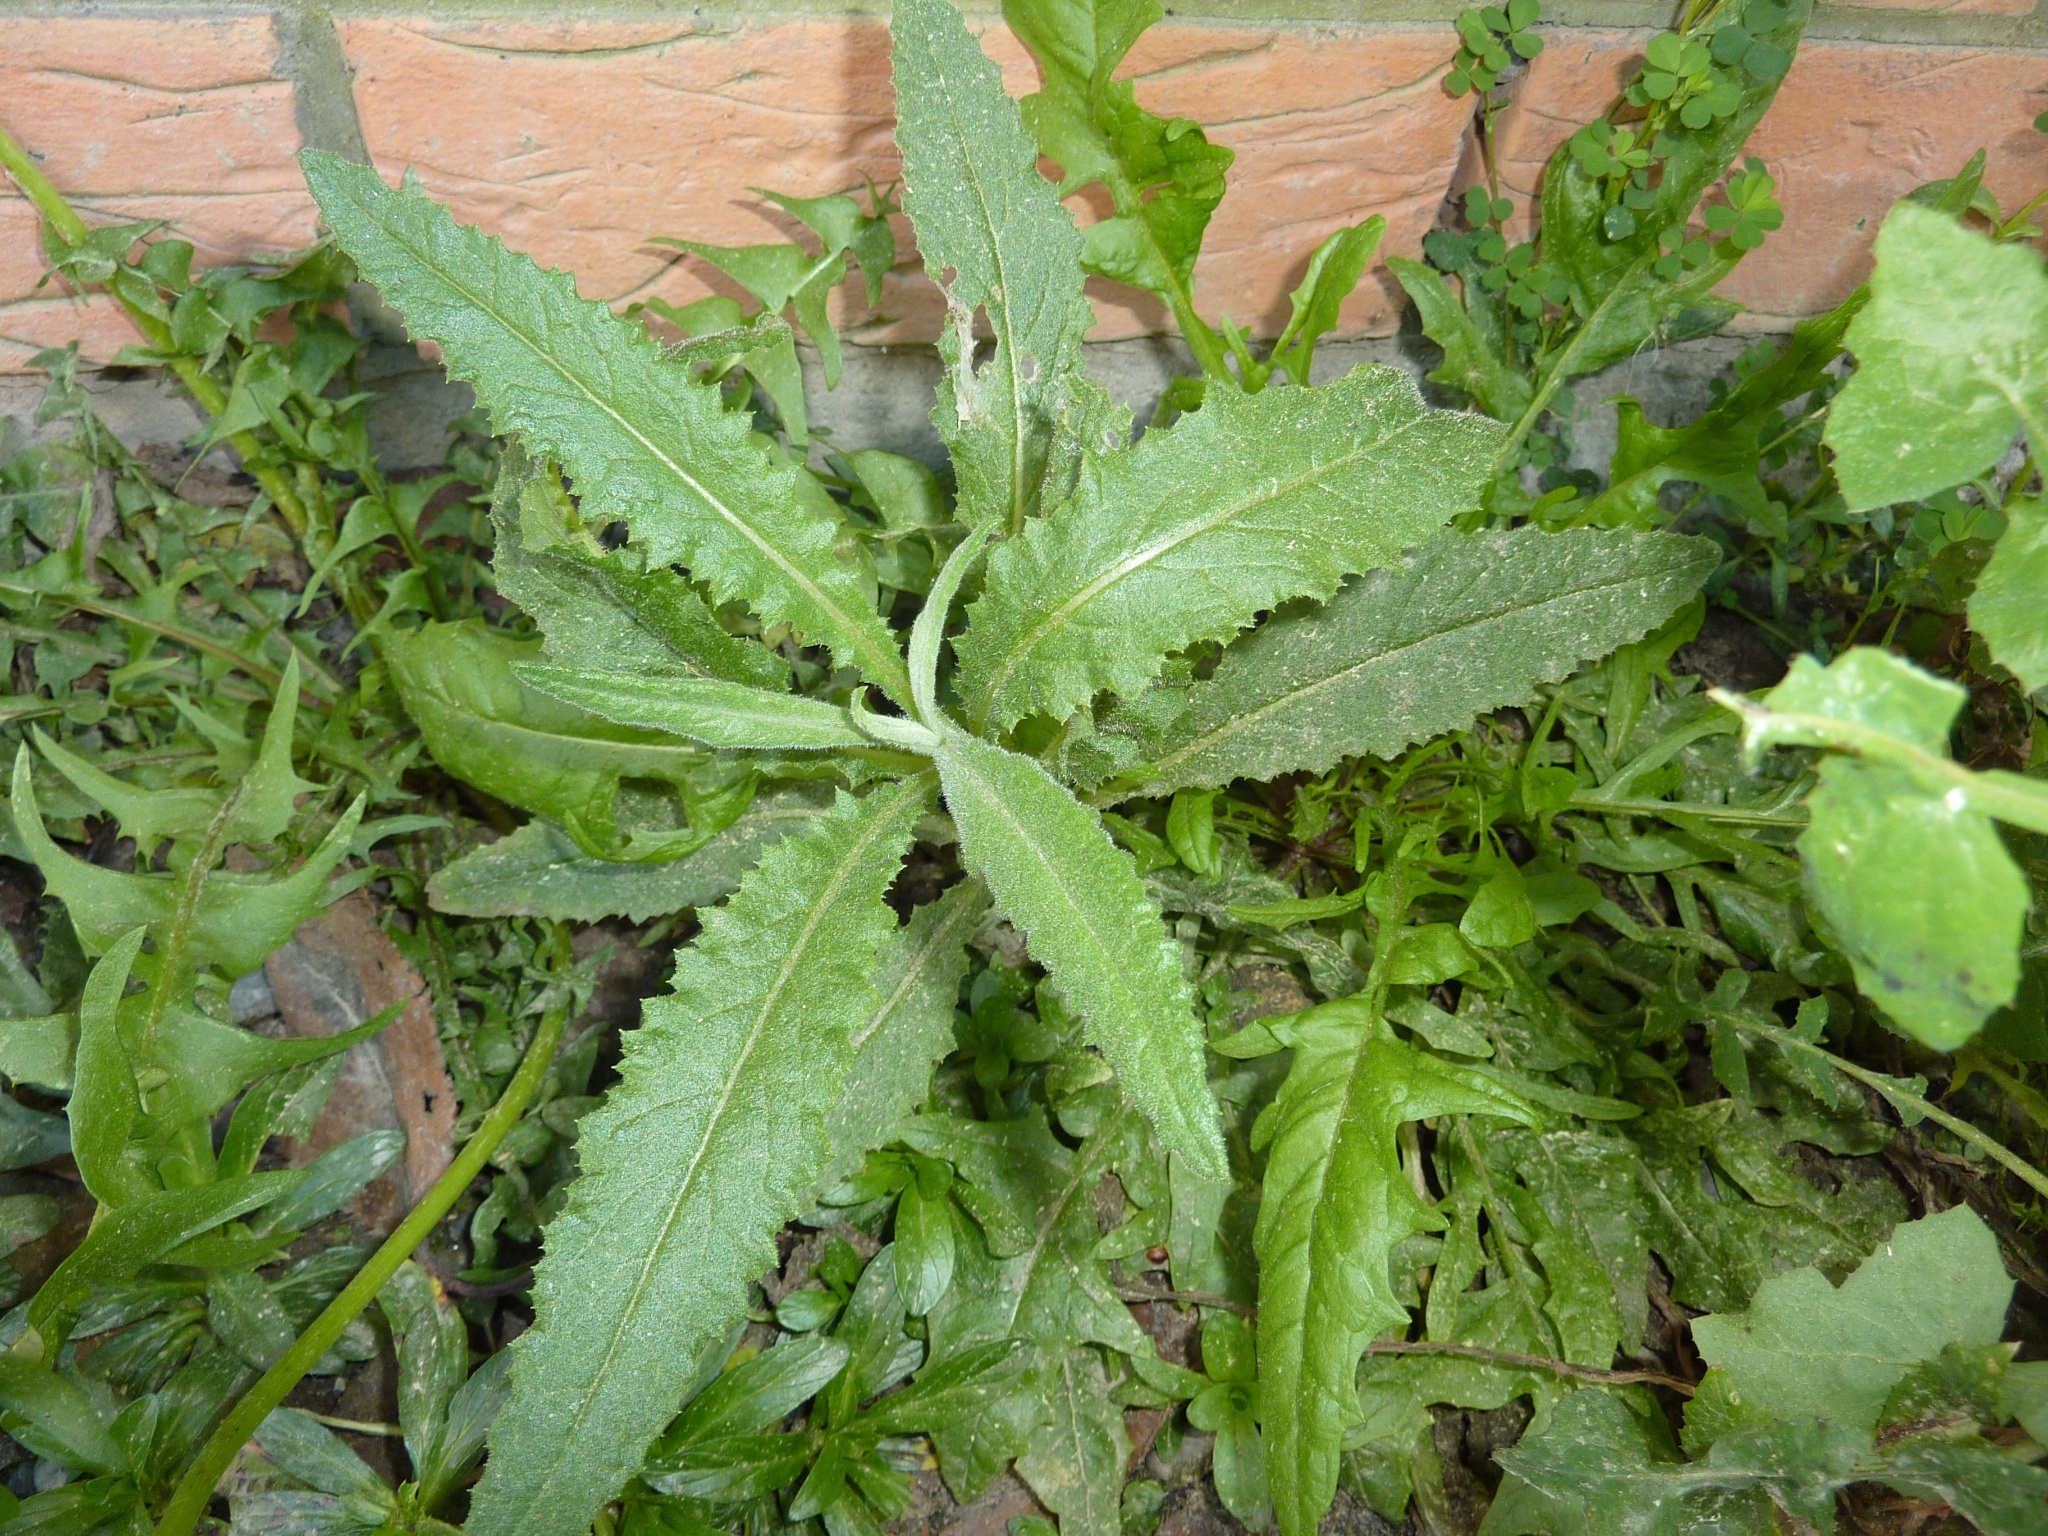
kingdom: Plantae
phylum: Tracheophyta
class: Magnoliopsida
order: Asterales
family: Asteraceae
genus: Senecio
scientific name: Senecio minimus
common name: Toothed fireweed
